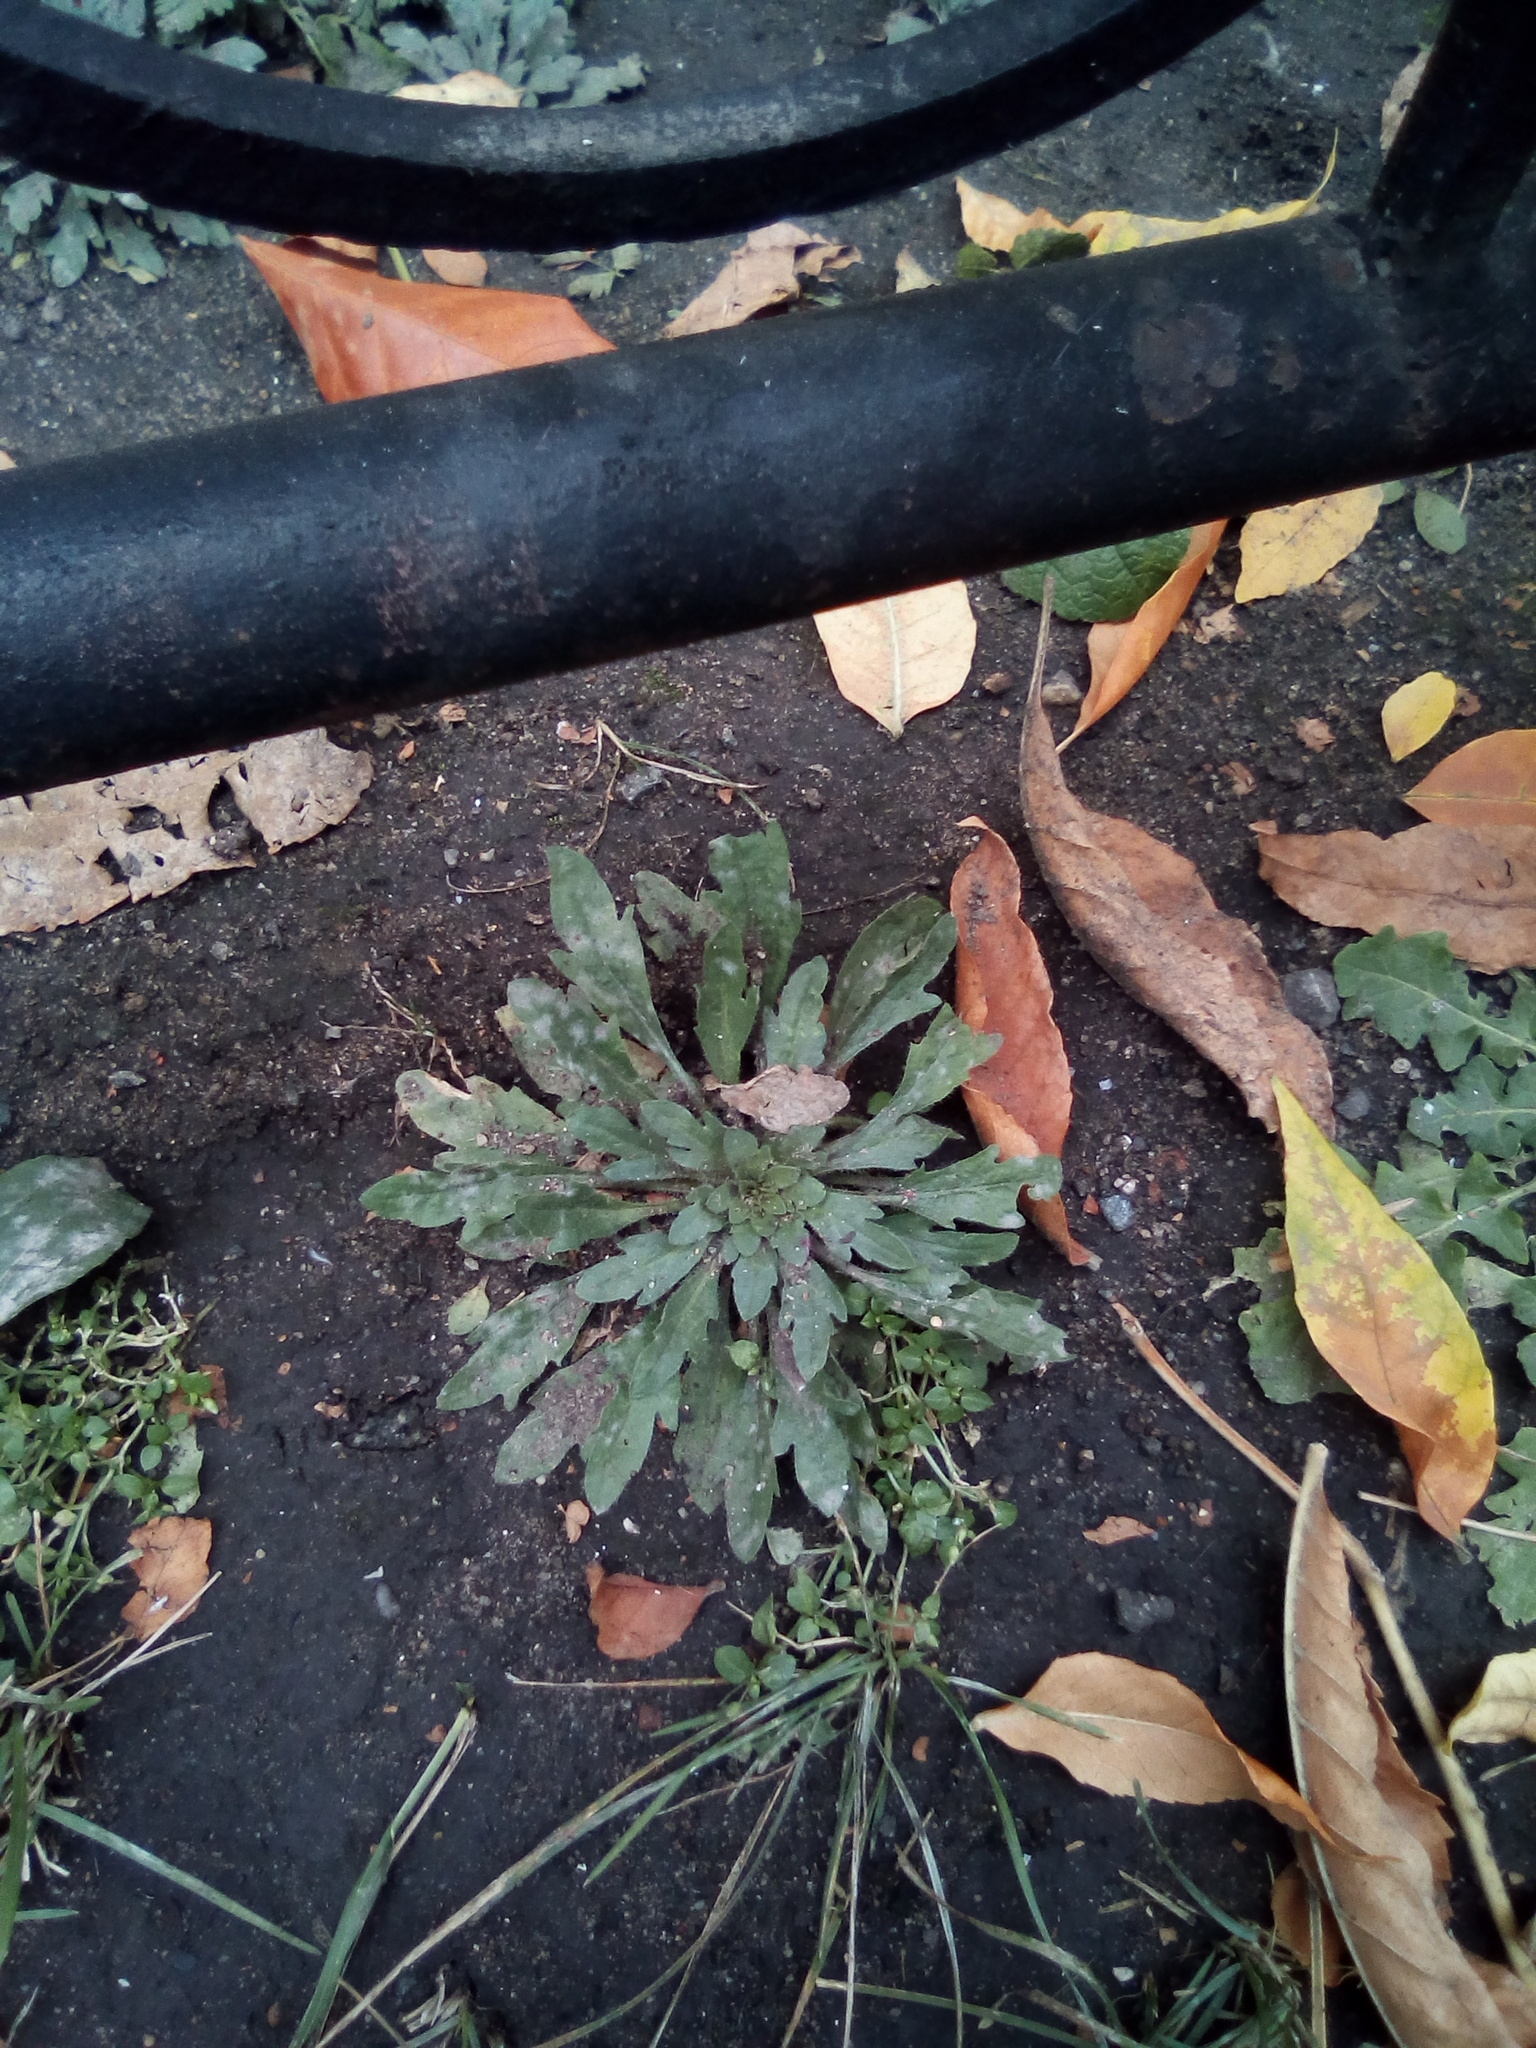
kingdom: Plantae
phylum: Tracheophyta
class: Magnoliopsida
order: Asterales
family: Asteraceae
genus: Erigeron
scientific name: Erigeron canadensis
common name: Canadian fleabane
